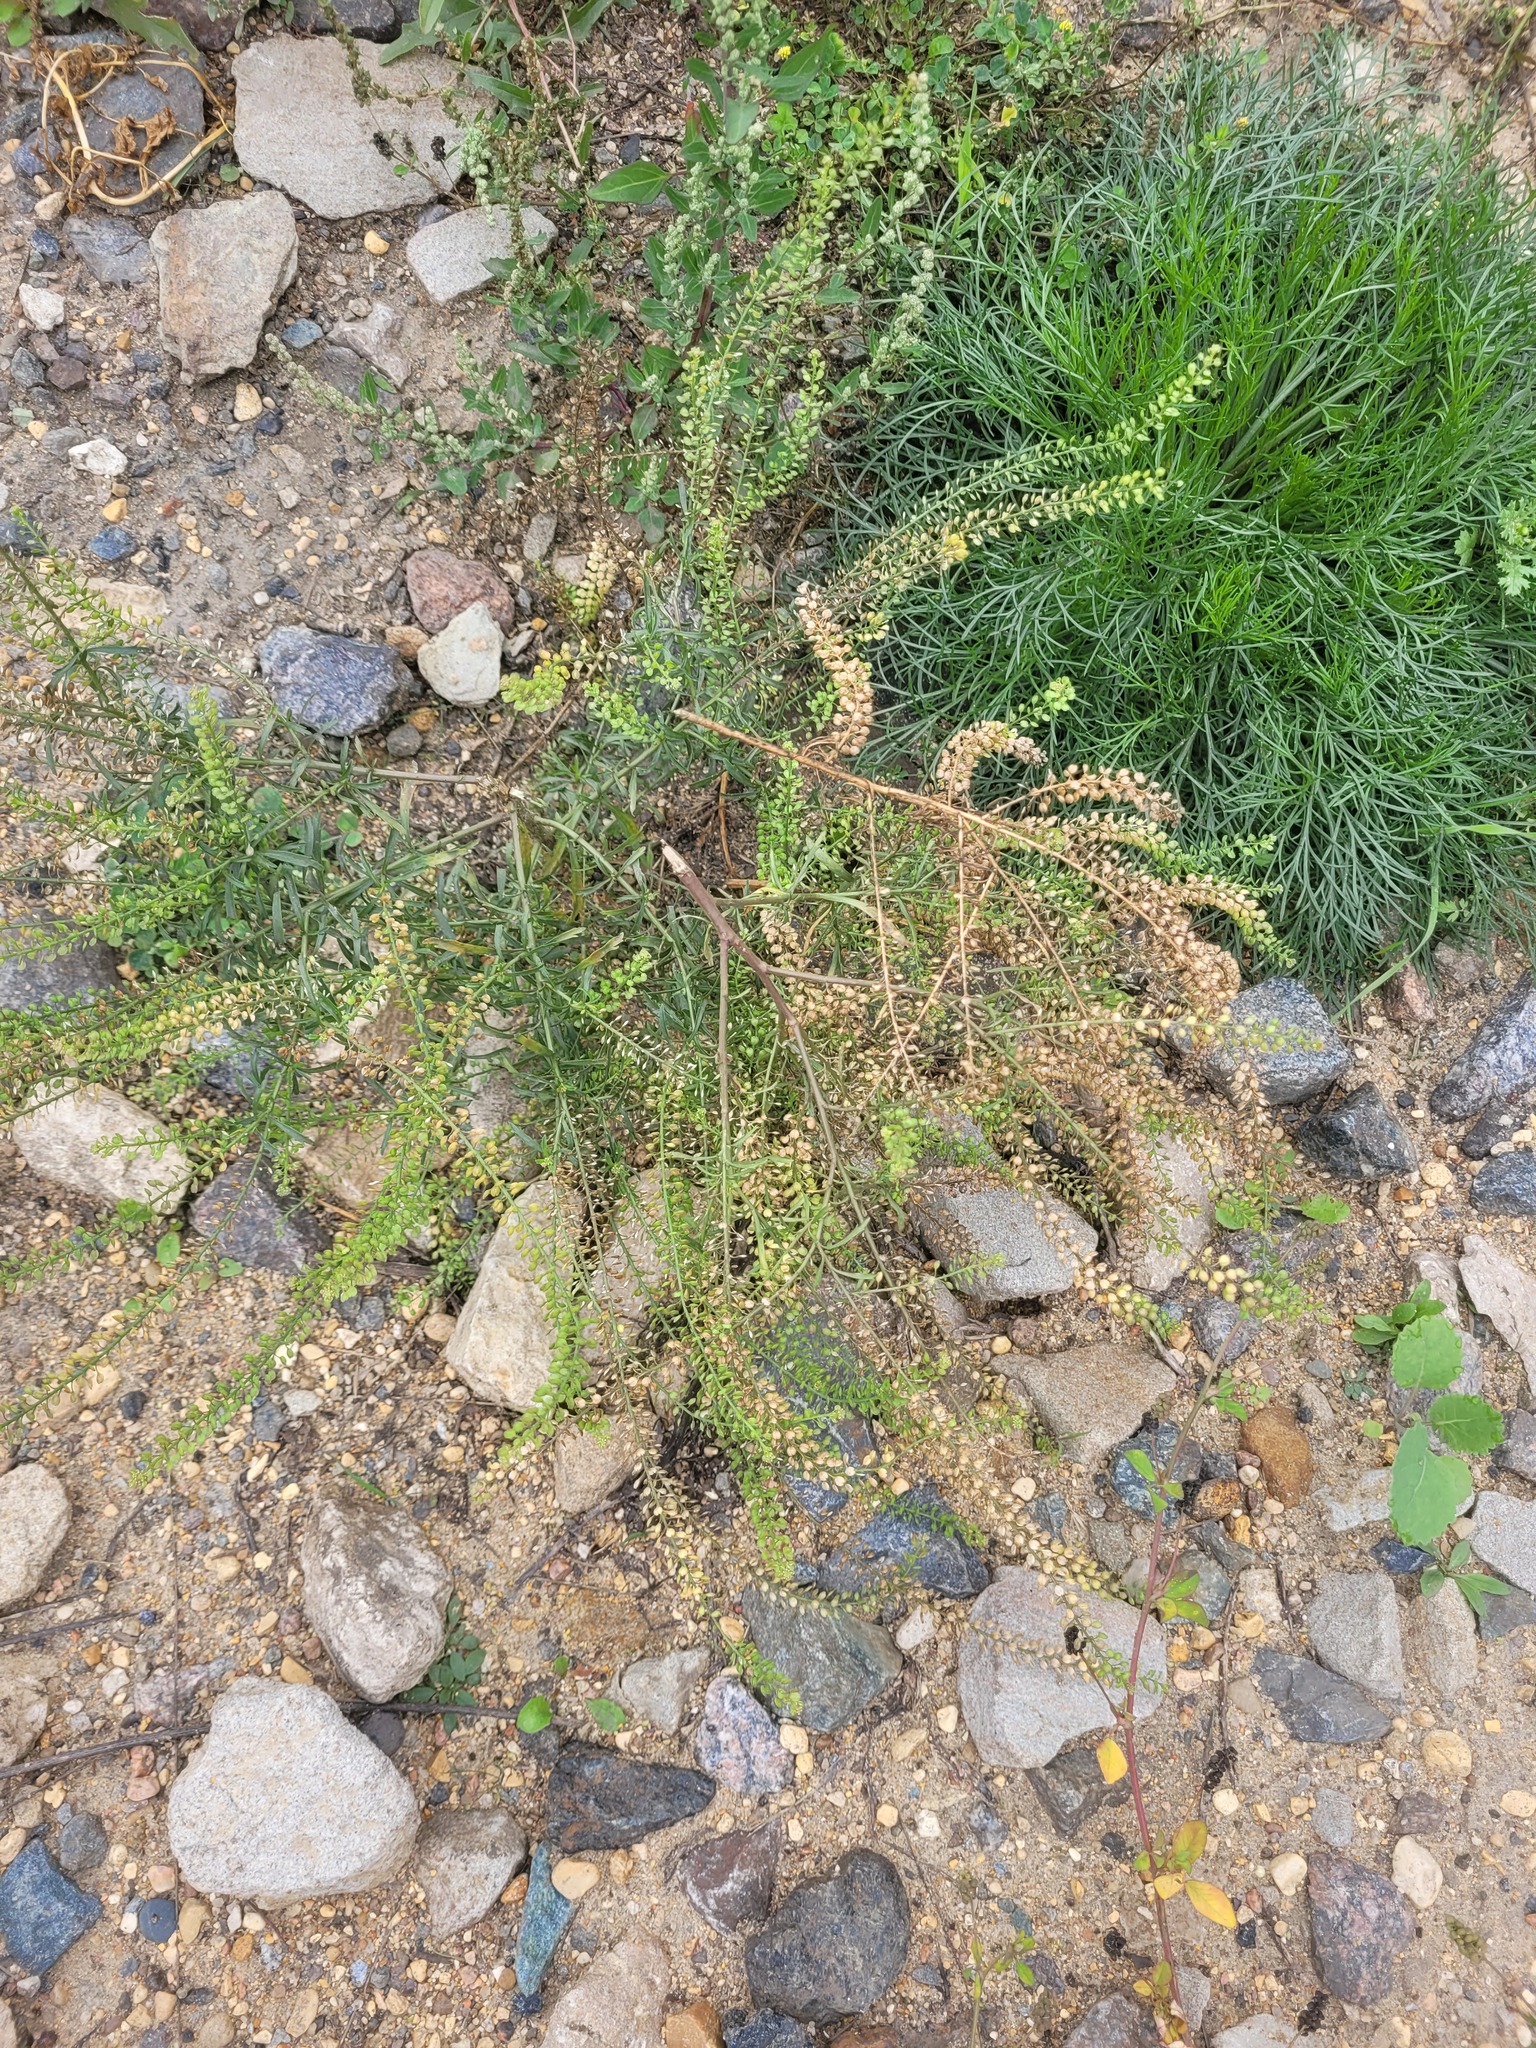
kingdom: Plantae
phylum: Tracheophyta
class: Magnoliopsida
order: Brassicales
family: Brassicaceae
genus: Lepidium
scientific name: Lepidium densiflorum
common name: Miner's pepperwort
